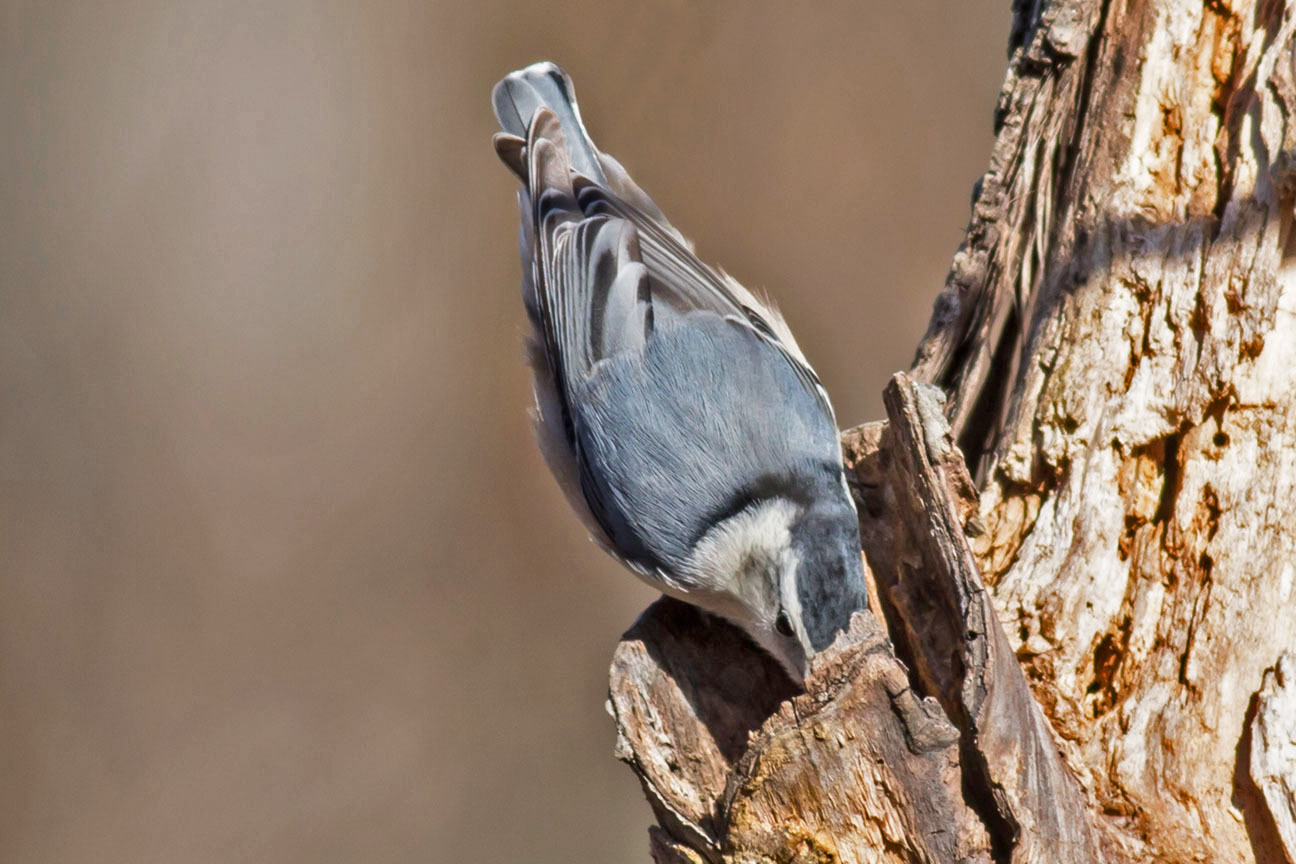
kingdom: Animalia
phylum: Chordata
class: Aves
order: Passeriformes
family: Sittidae
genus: Sitta
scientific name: Sitta carolinensis
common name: White-breasted nuthatch
